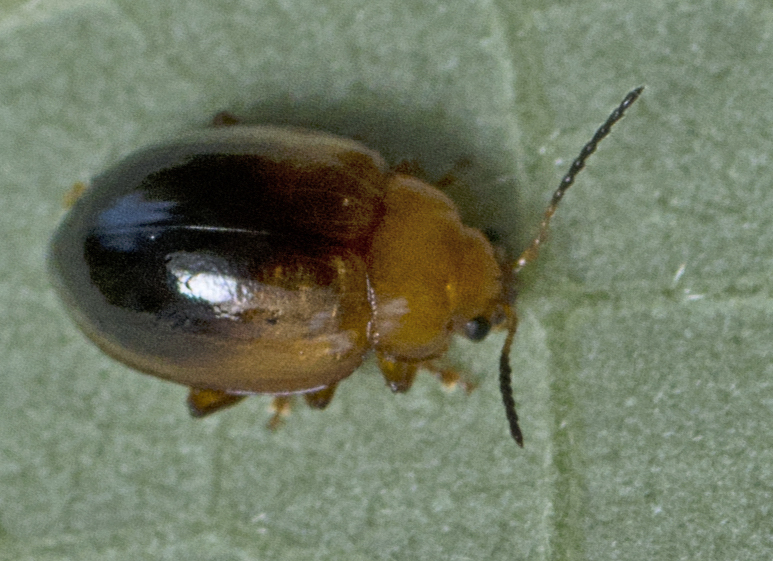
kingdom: Animalia
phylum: Arthropoda
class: Insecta
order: Coleoptera
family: Chrysomelidae
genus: Nisotra
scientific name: Nisotra
